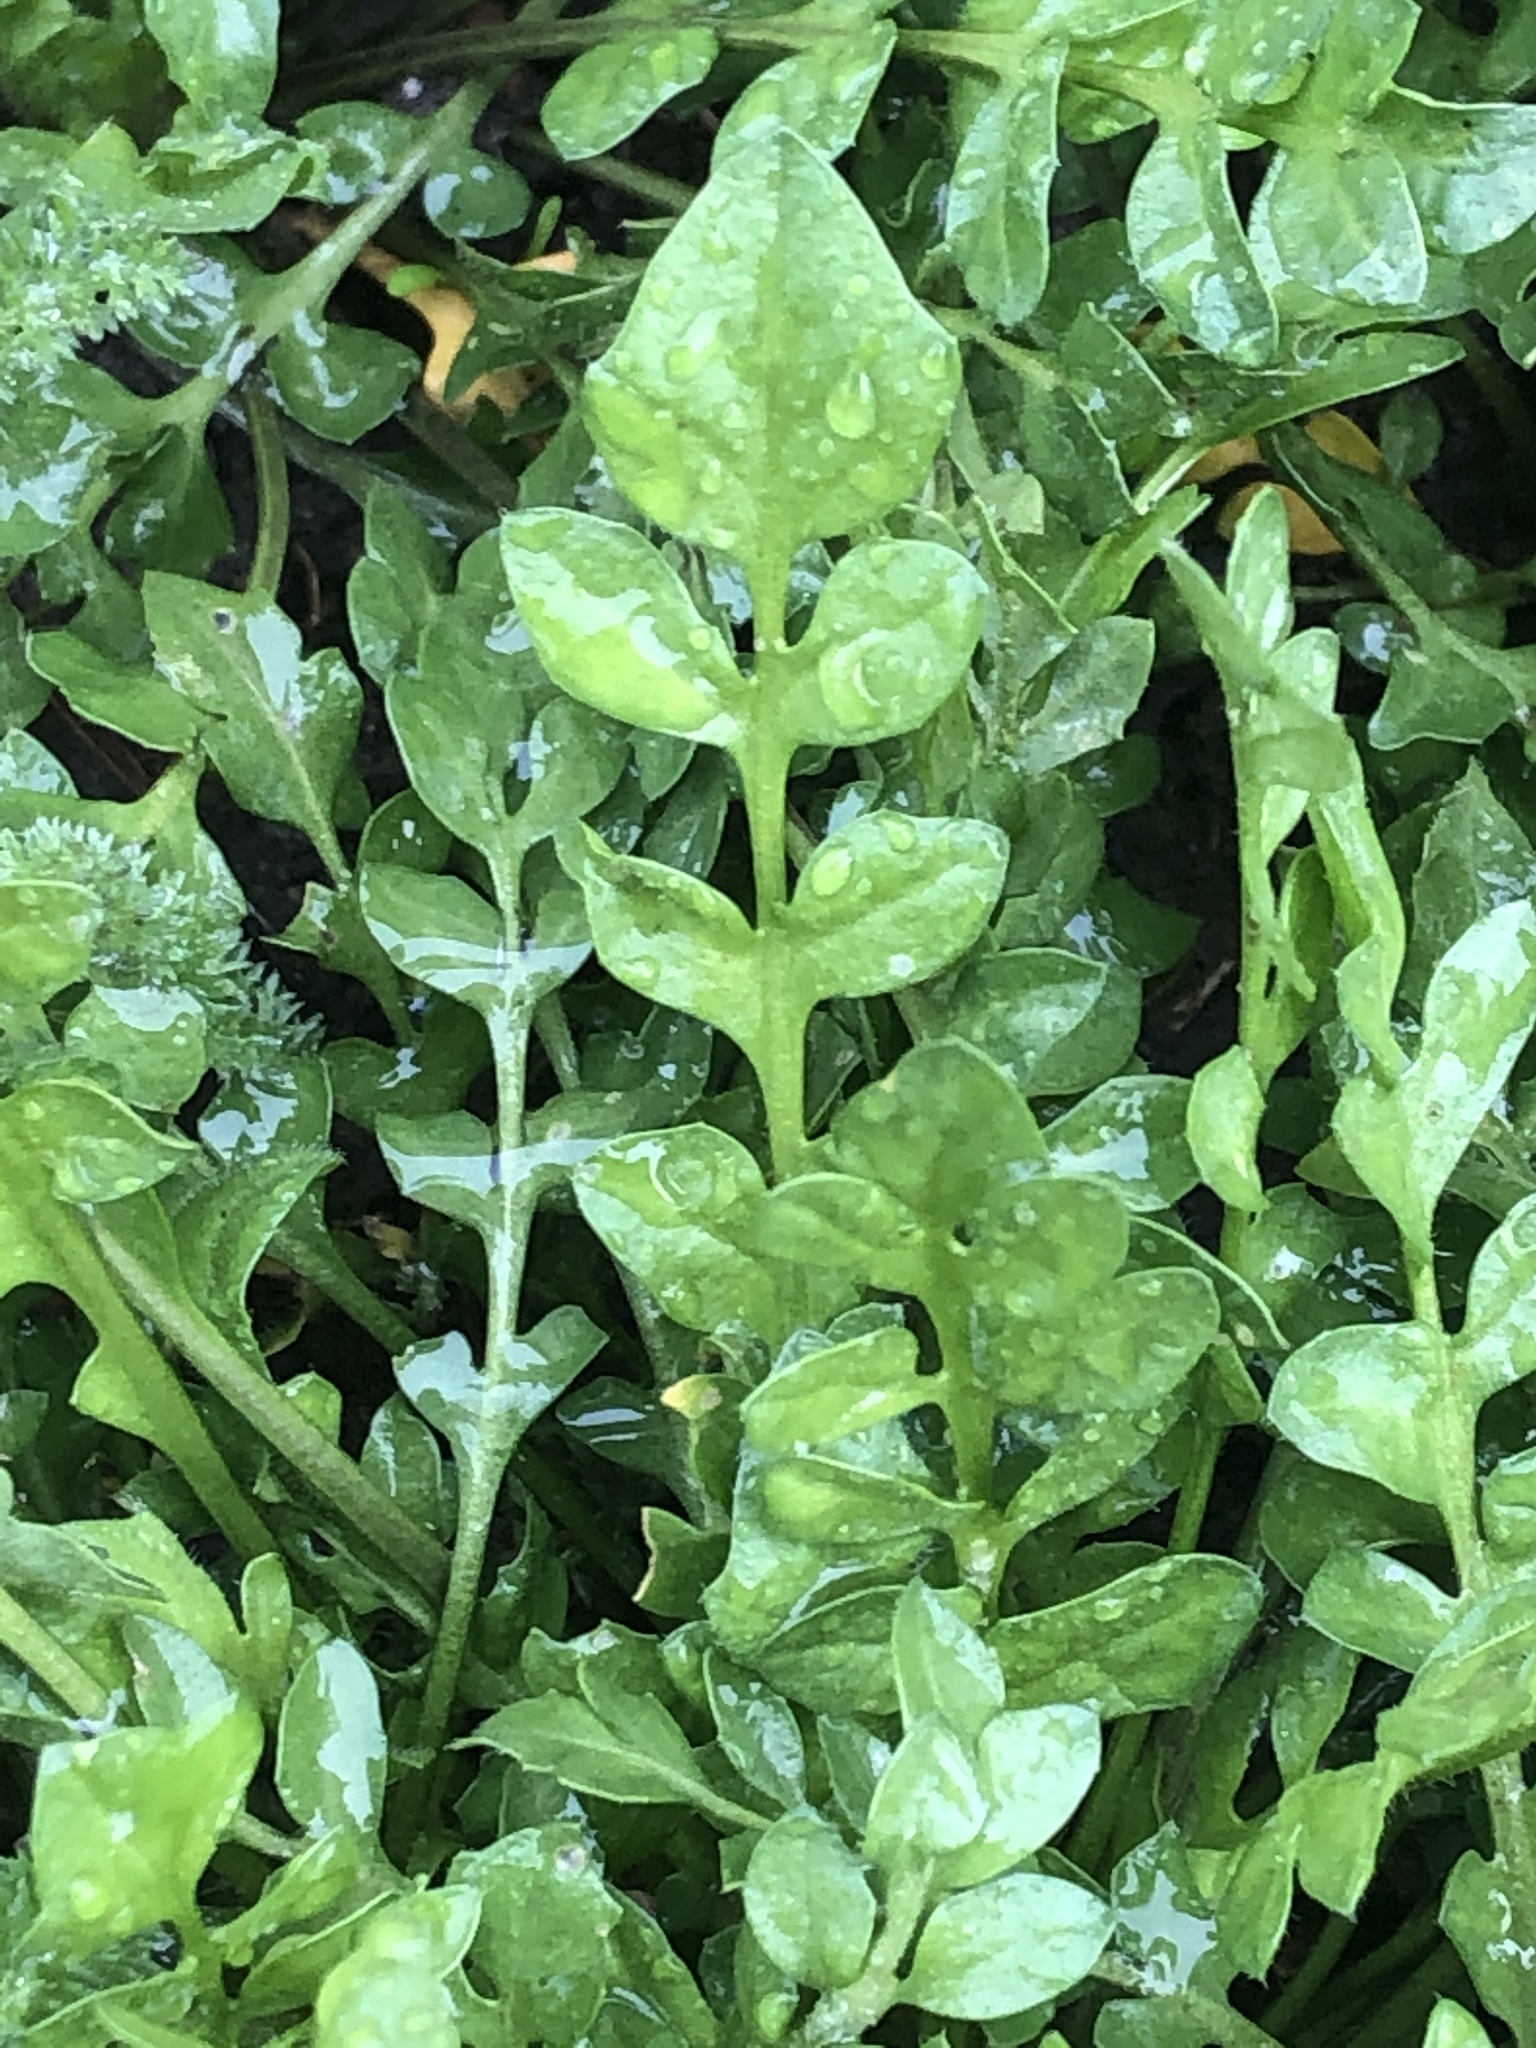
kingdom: Plantae
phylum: Tracheophyta
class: Magnoliopsida
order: Brassicales
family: Brassicaceae
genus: Capsella
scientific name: Capsella bursa-pastoris
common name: Shepherd's purse
